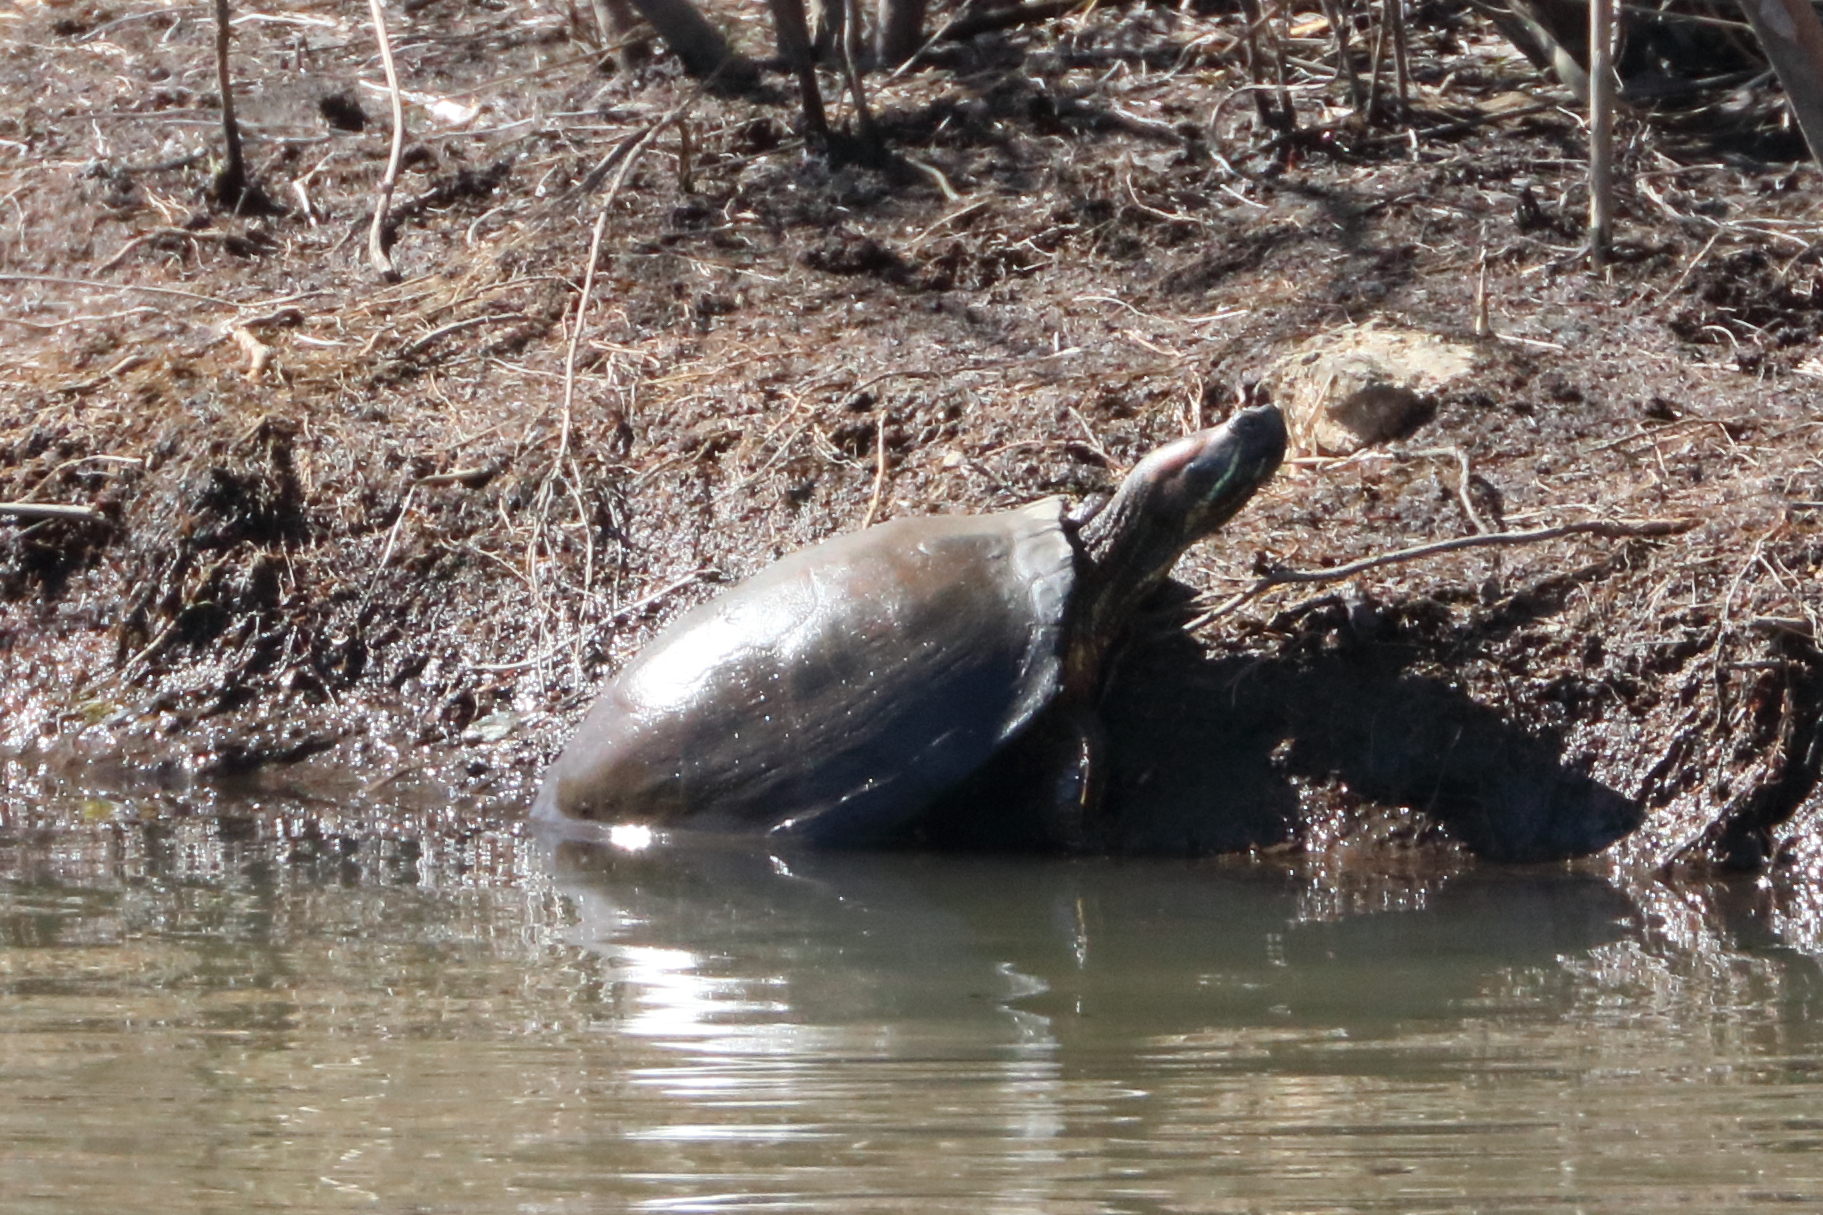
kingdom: Animalia
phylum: Chordata
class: Testudines
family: Emydidae
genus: Trachemys
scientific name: Trachemys scripta
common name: Slider
